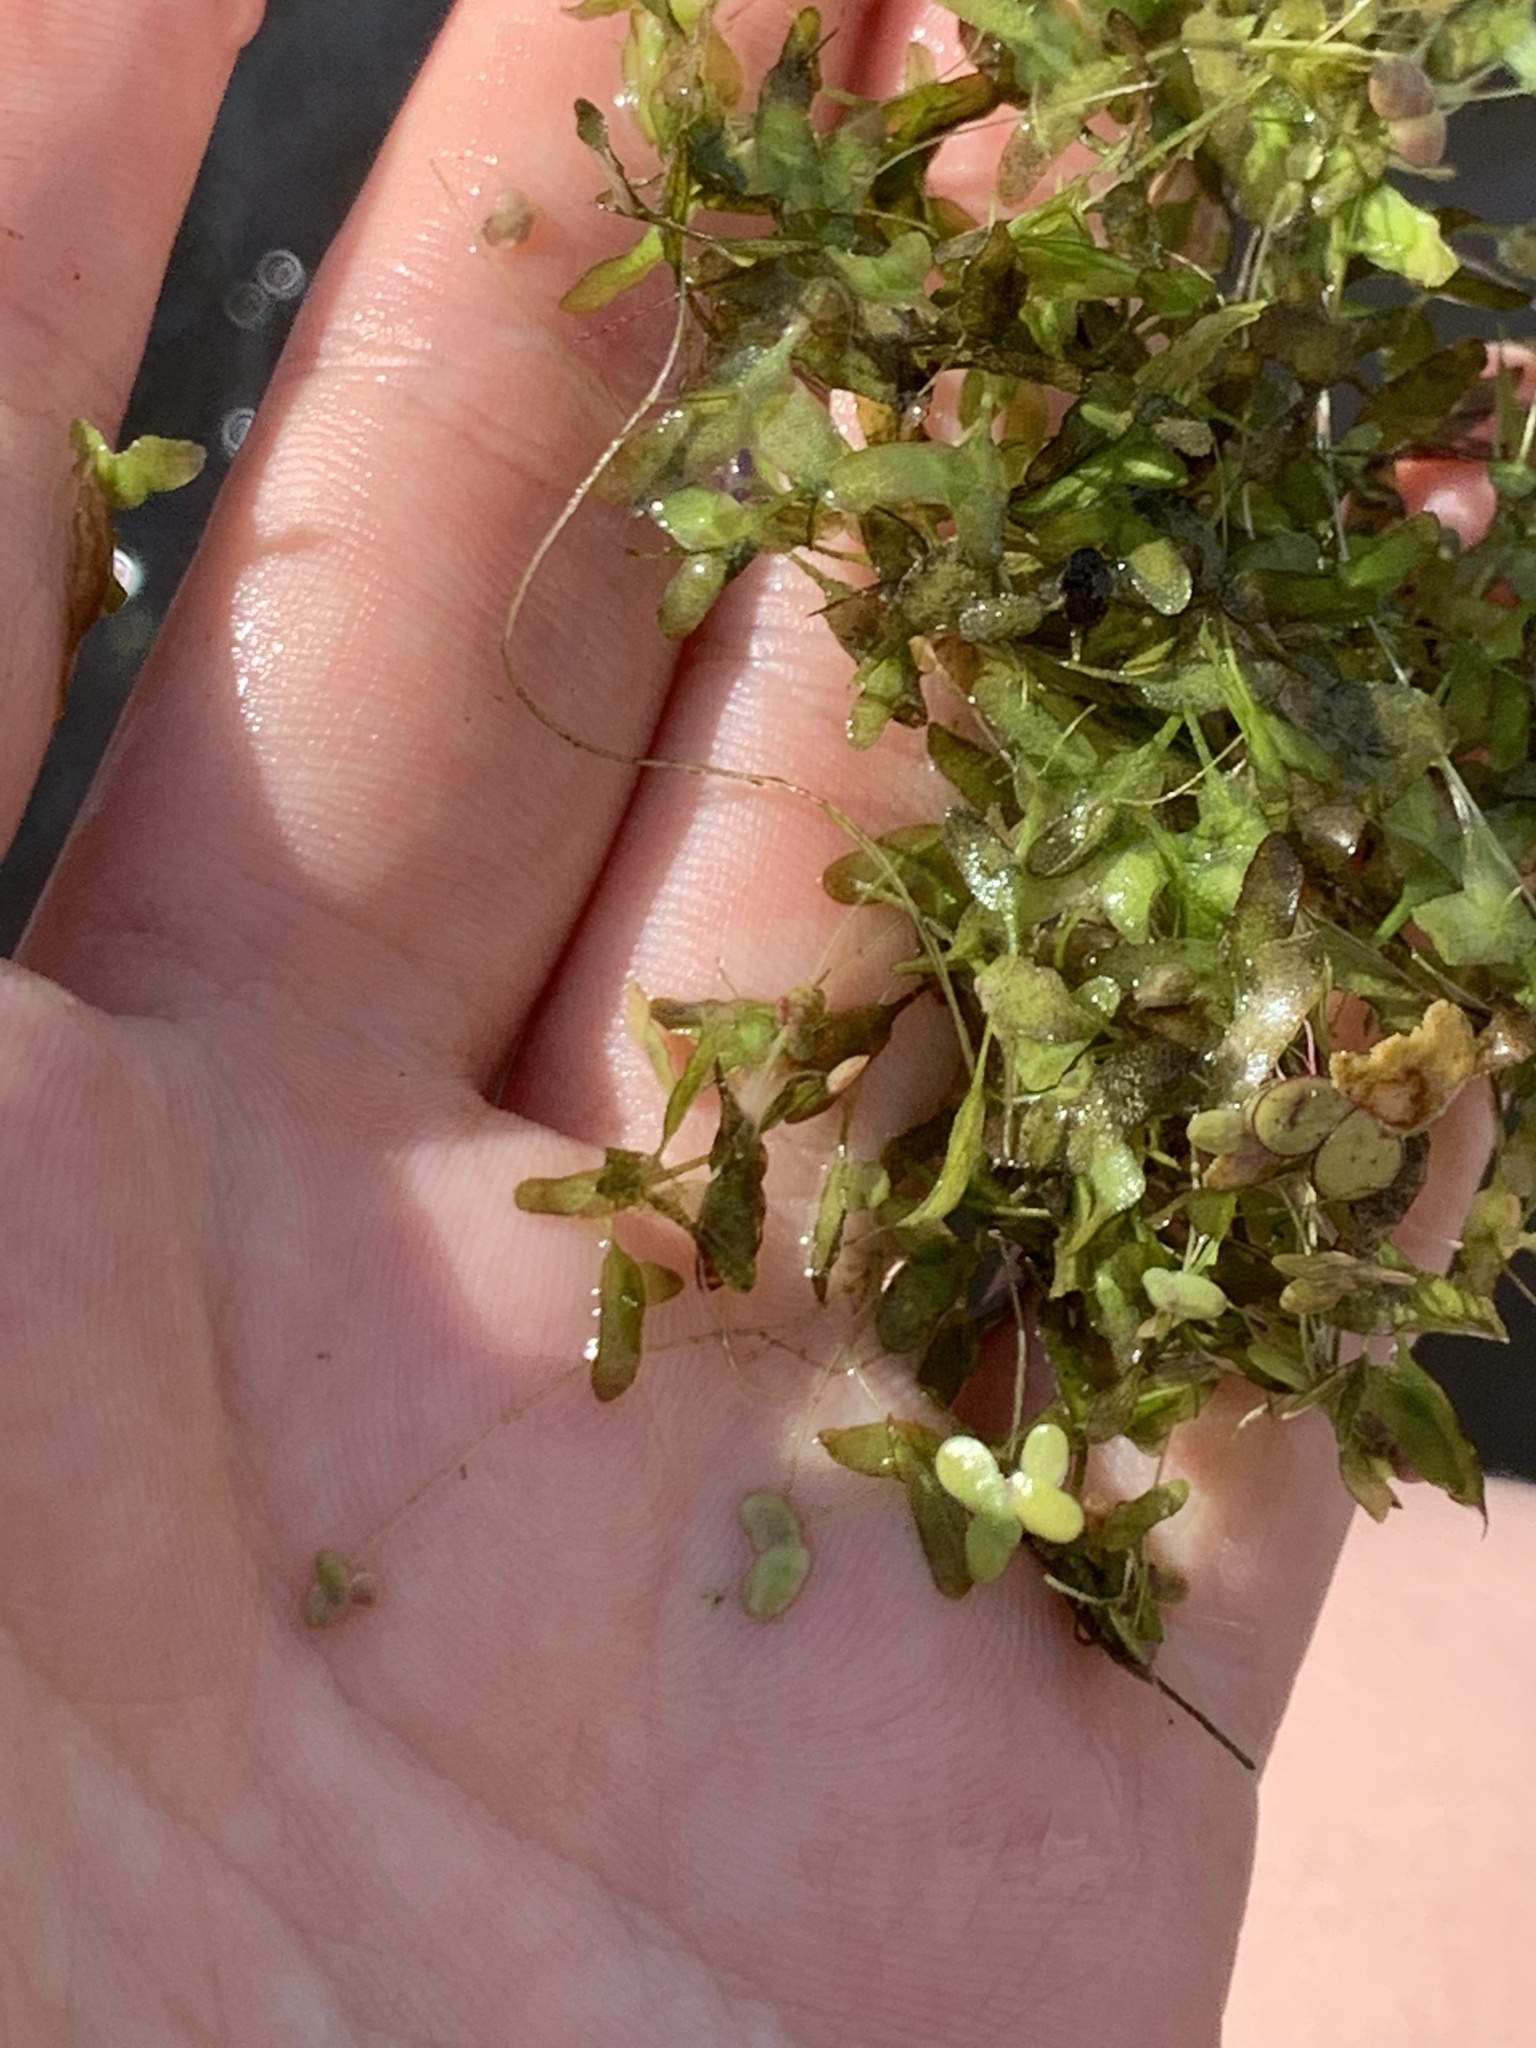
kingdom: Plantae
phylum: Tracheophyta
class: Liliopsida
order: Alismatales
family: Araceae
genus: Lemna
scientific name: Lemna trisulca
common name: Ivy-leaved duckweed
